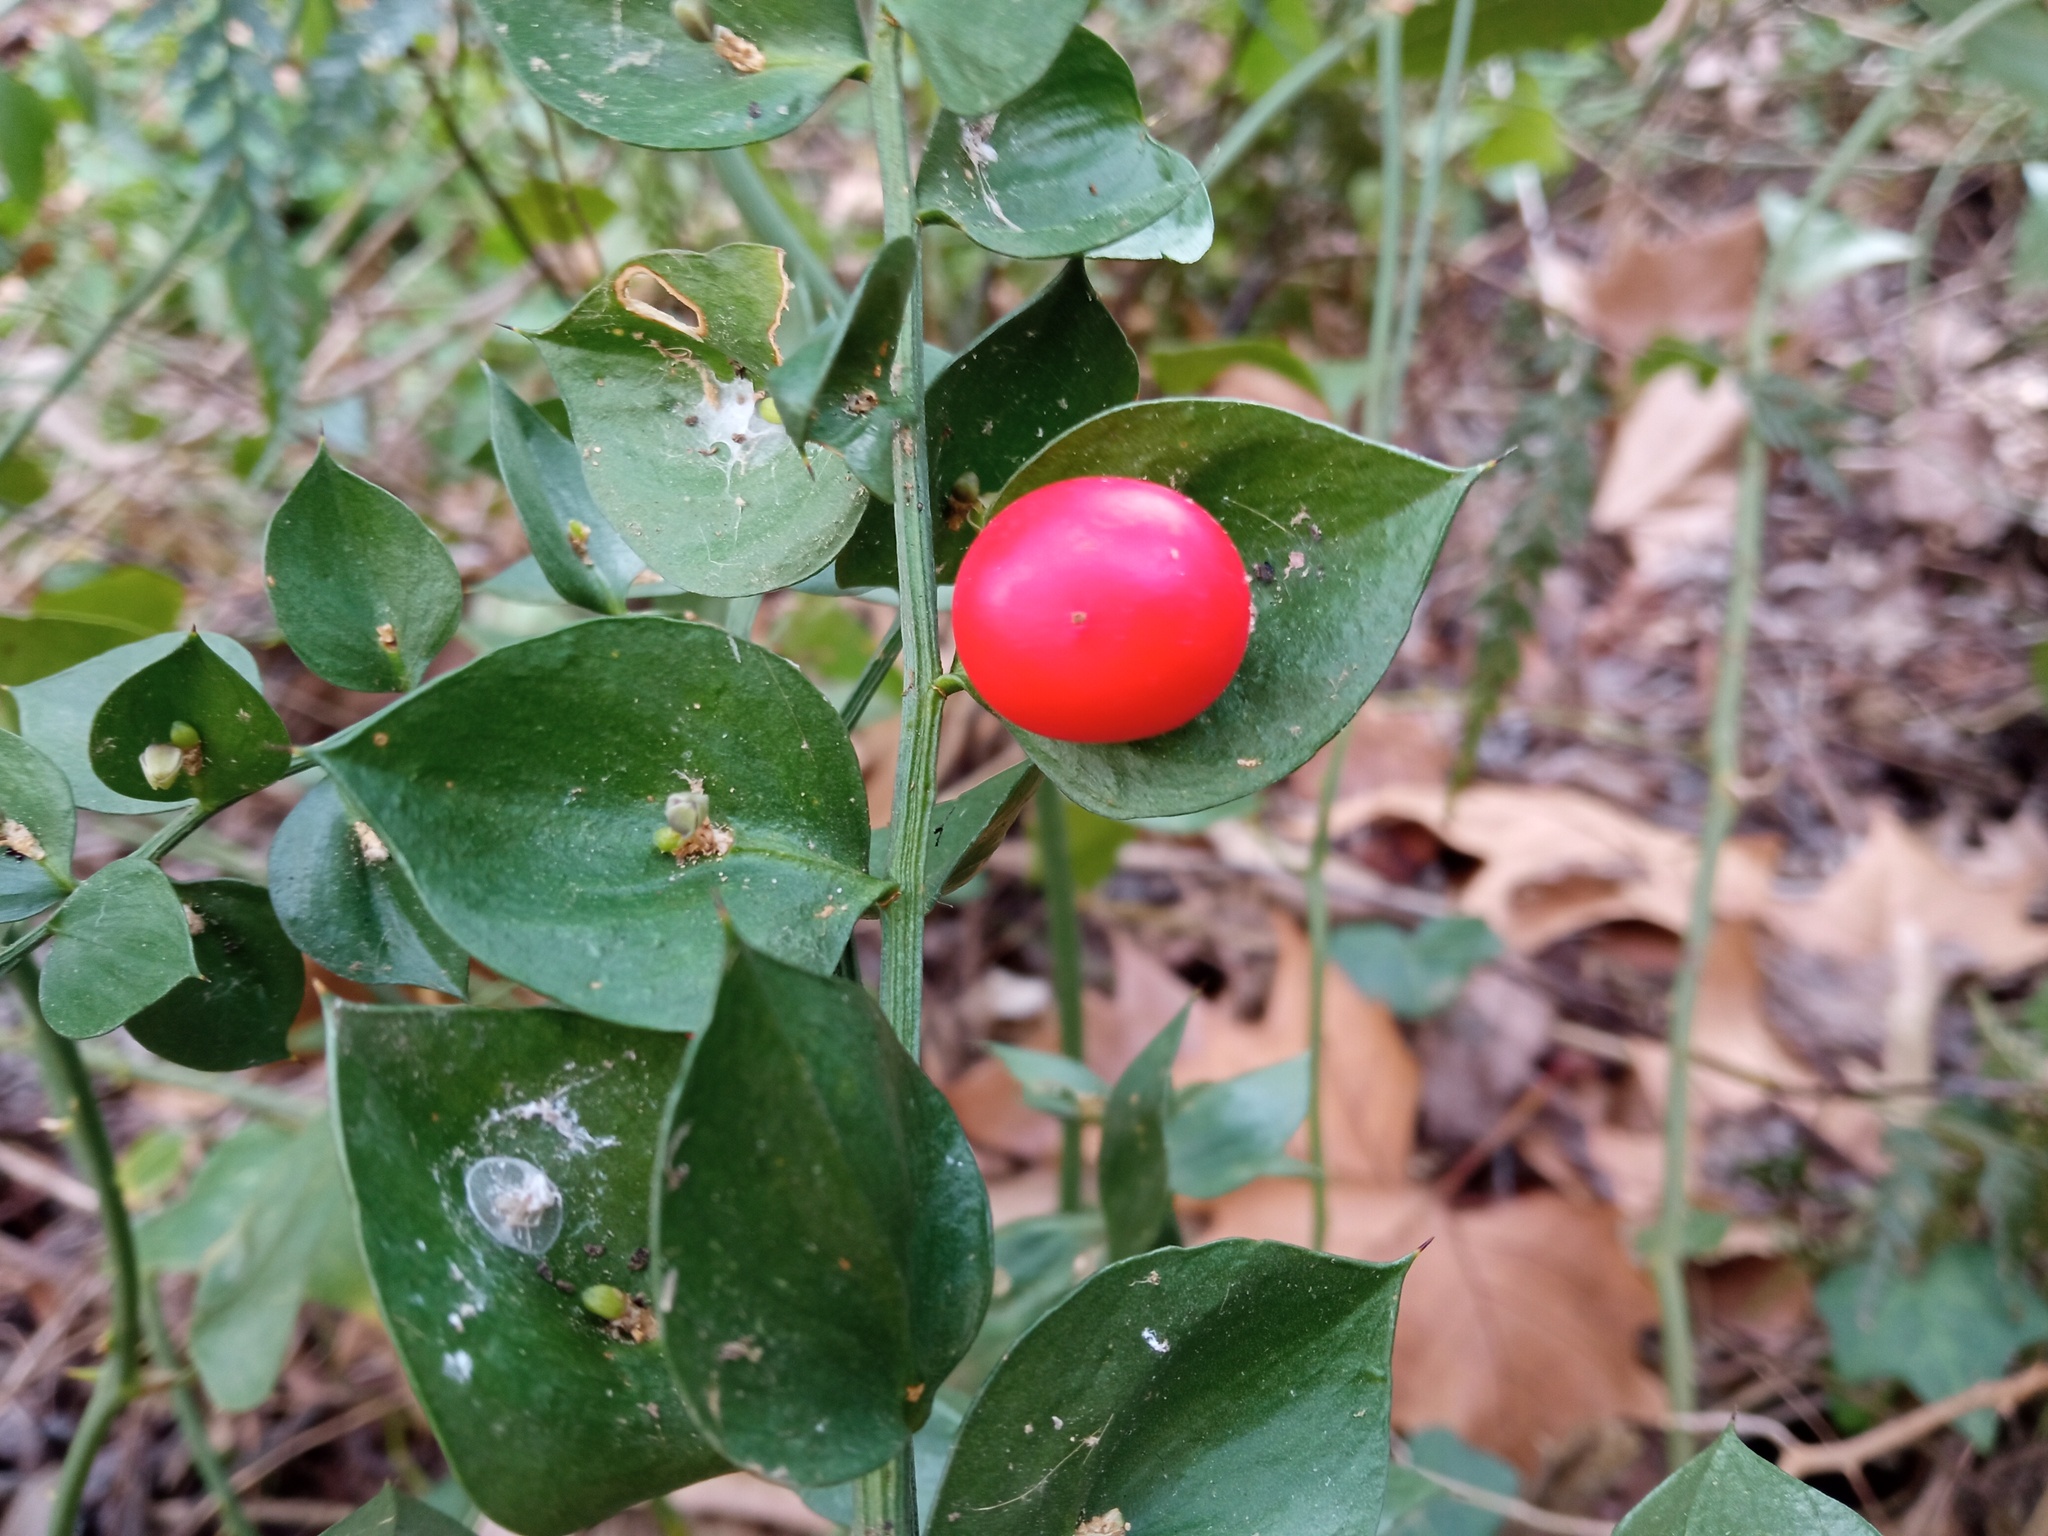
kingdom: Plantae
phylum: Tracheophyta
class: Liliopsida
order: Asparagales
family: Asparagaceae
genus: Ruscus
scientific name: Ruscus aculeatus
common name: Butcher's-broom
